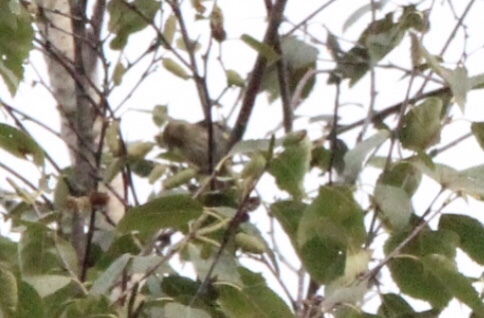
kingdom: Animalia
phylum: Chordata
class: Aves
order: Passeriformes
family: Fringillidae
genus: Spinus
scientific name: Spinus pinus
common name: Pine siskin
